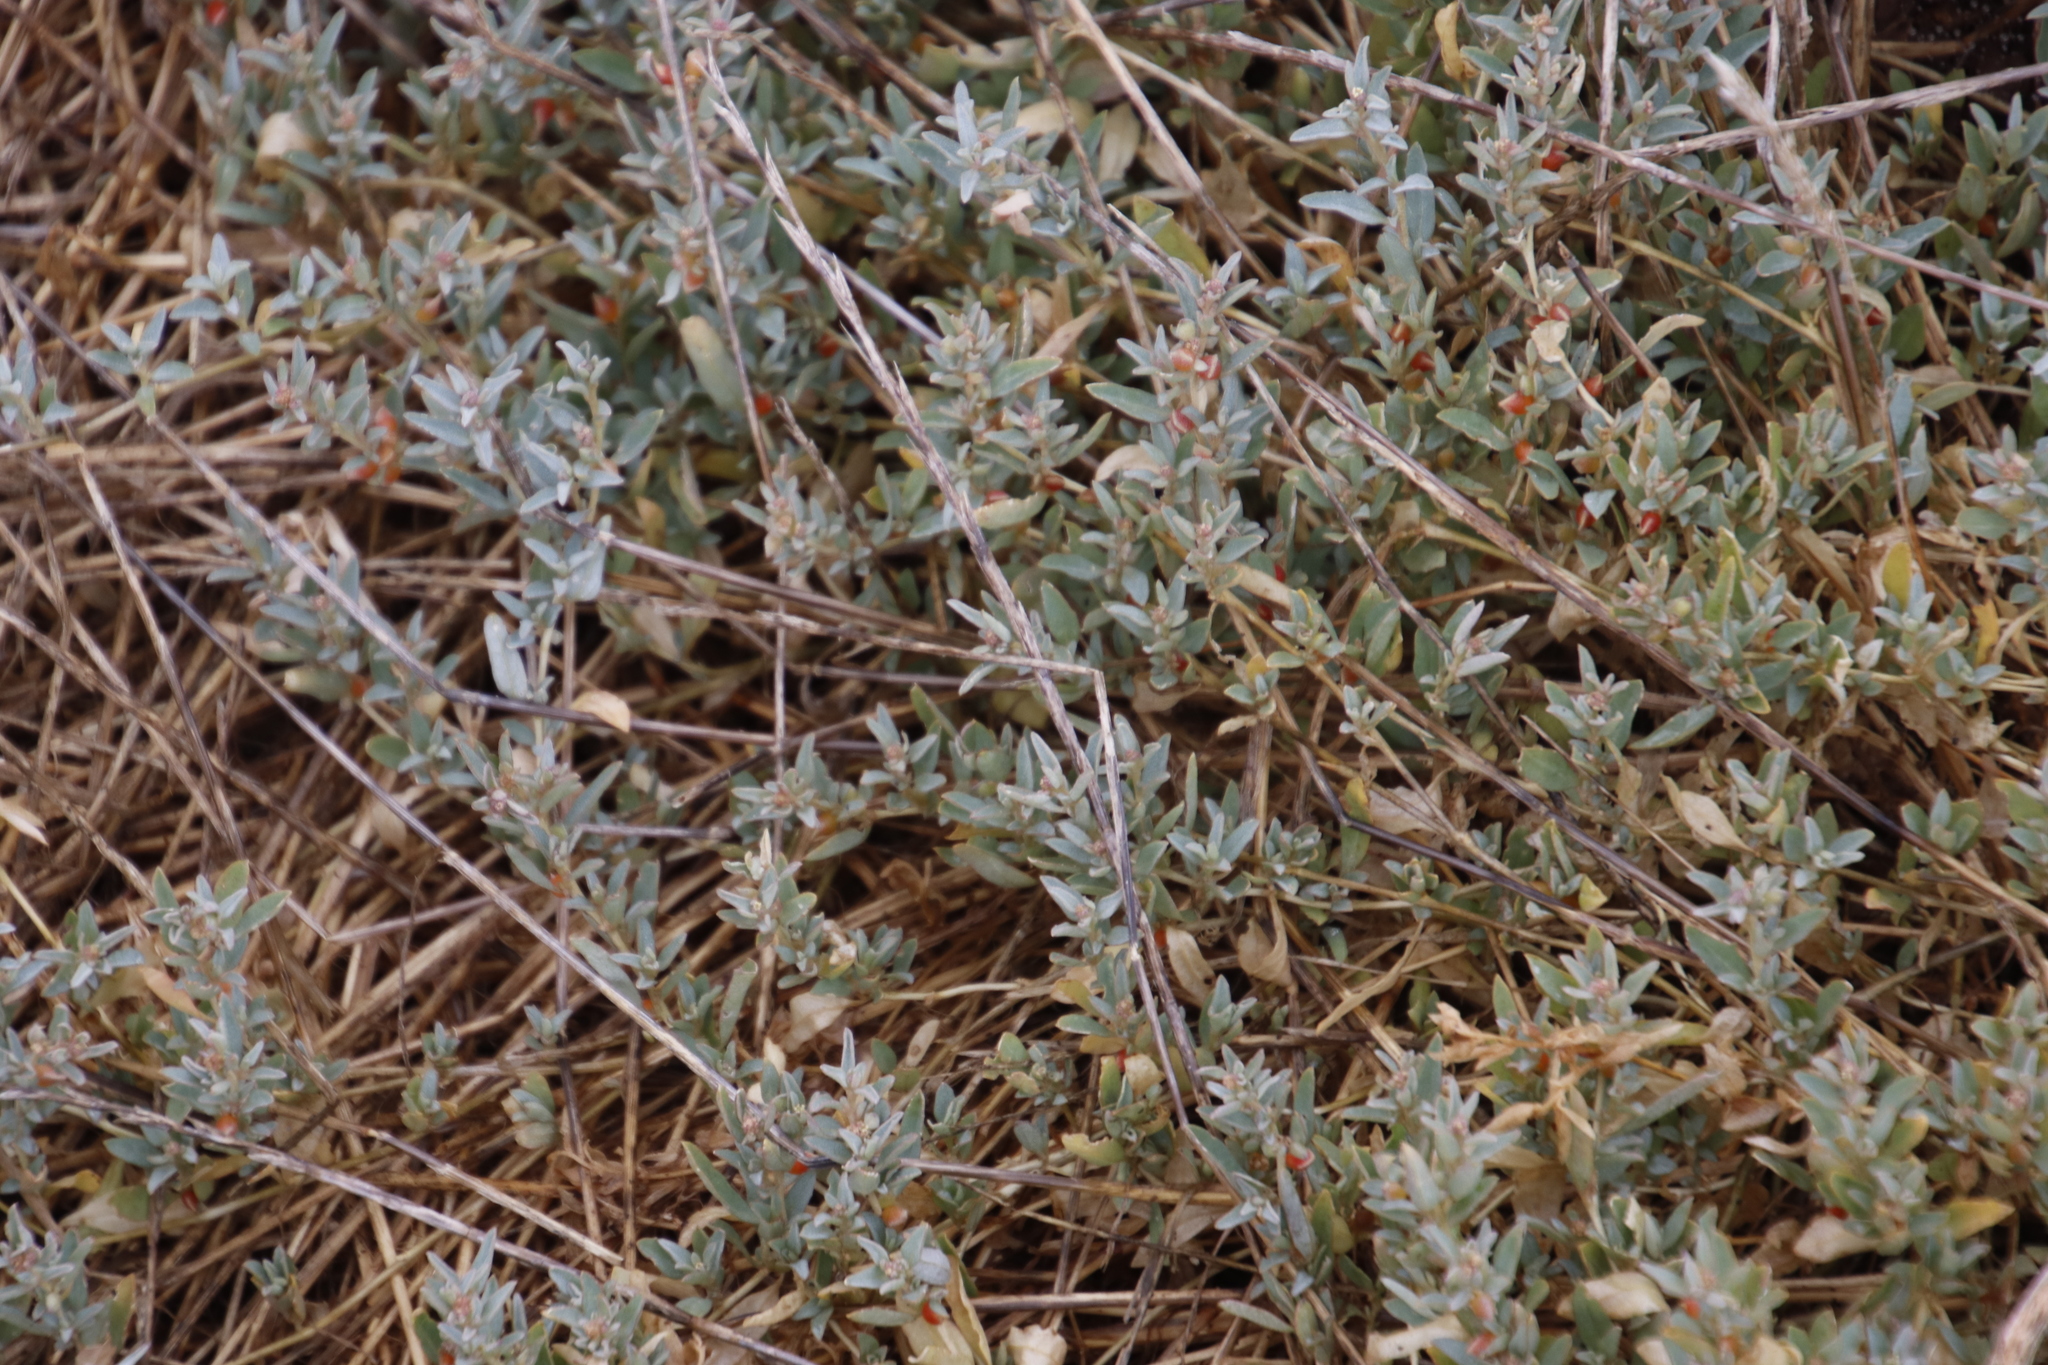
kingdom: Plantae
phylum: Tracheophyta
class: Magnoliopsida
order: Caryophyllales
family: Amaranthaceae
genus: Atriplex
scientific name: Atriplex semibaccata
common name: Australian saltbush
